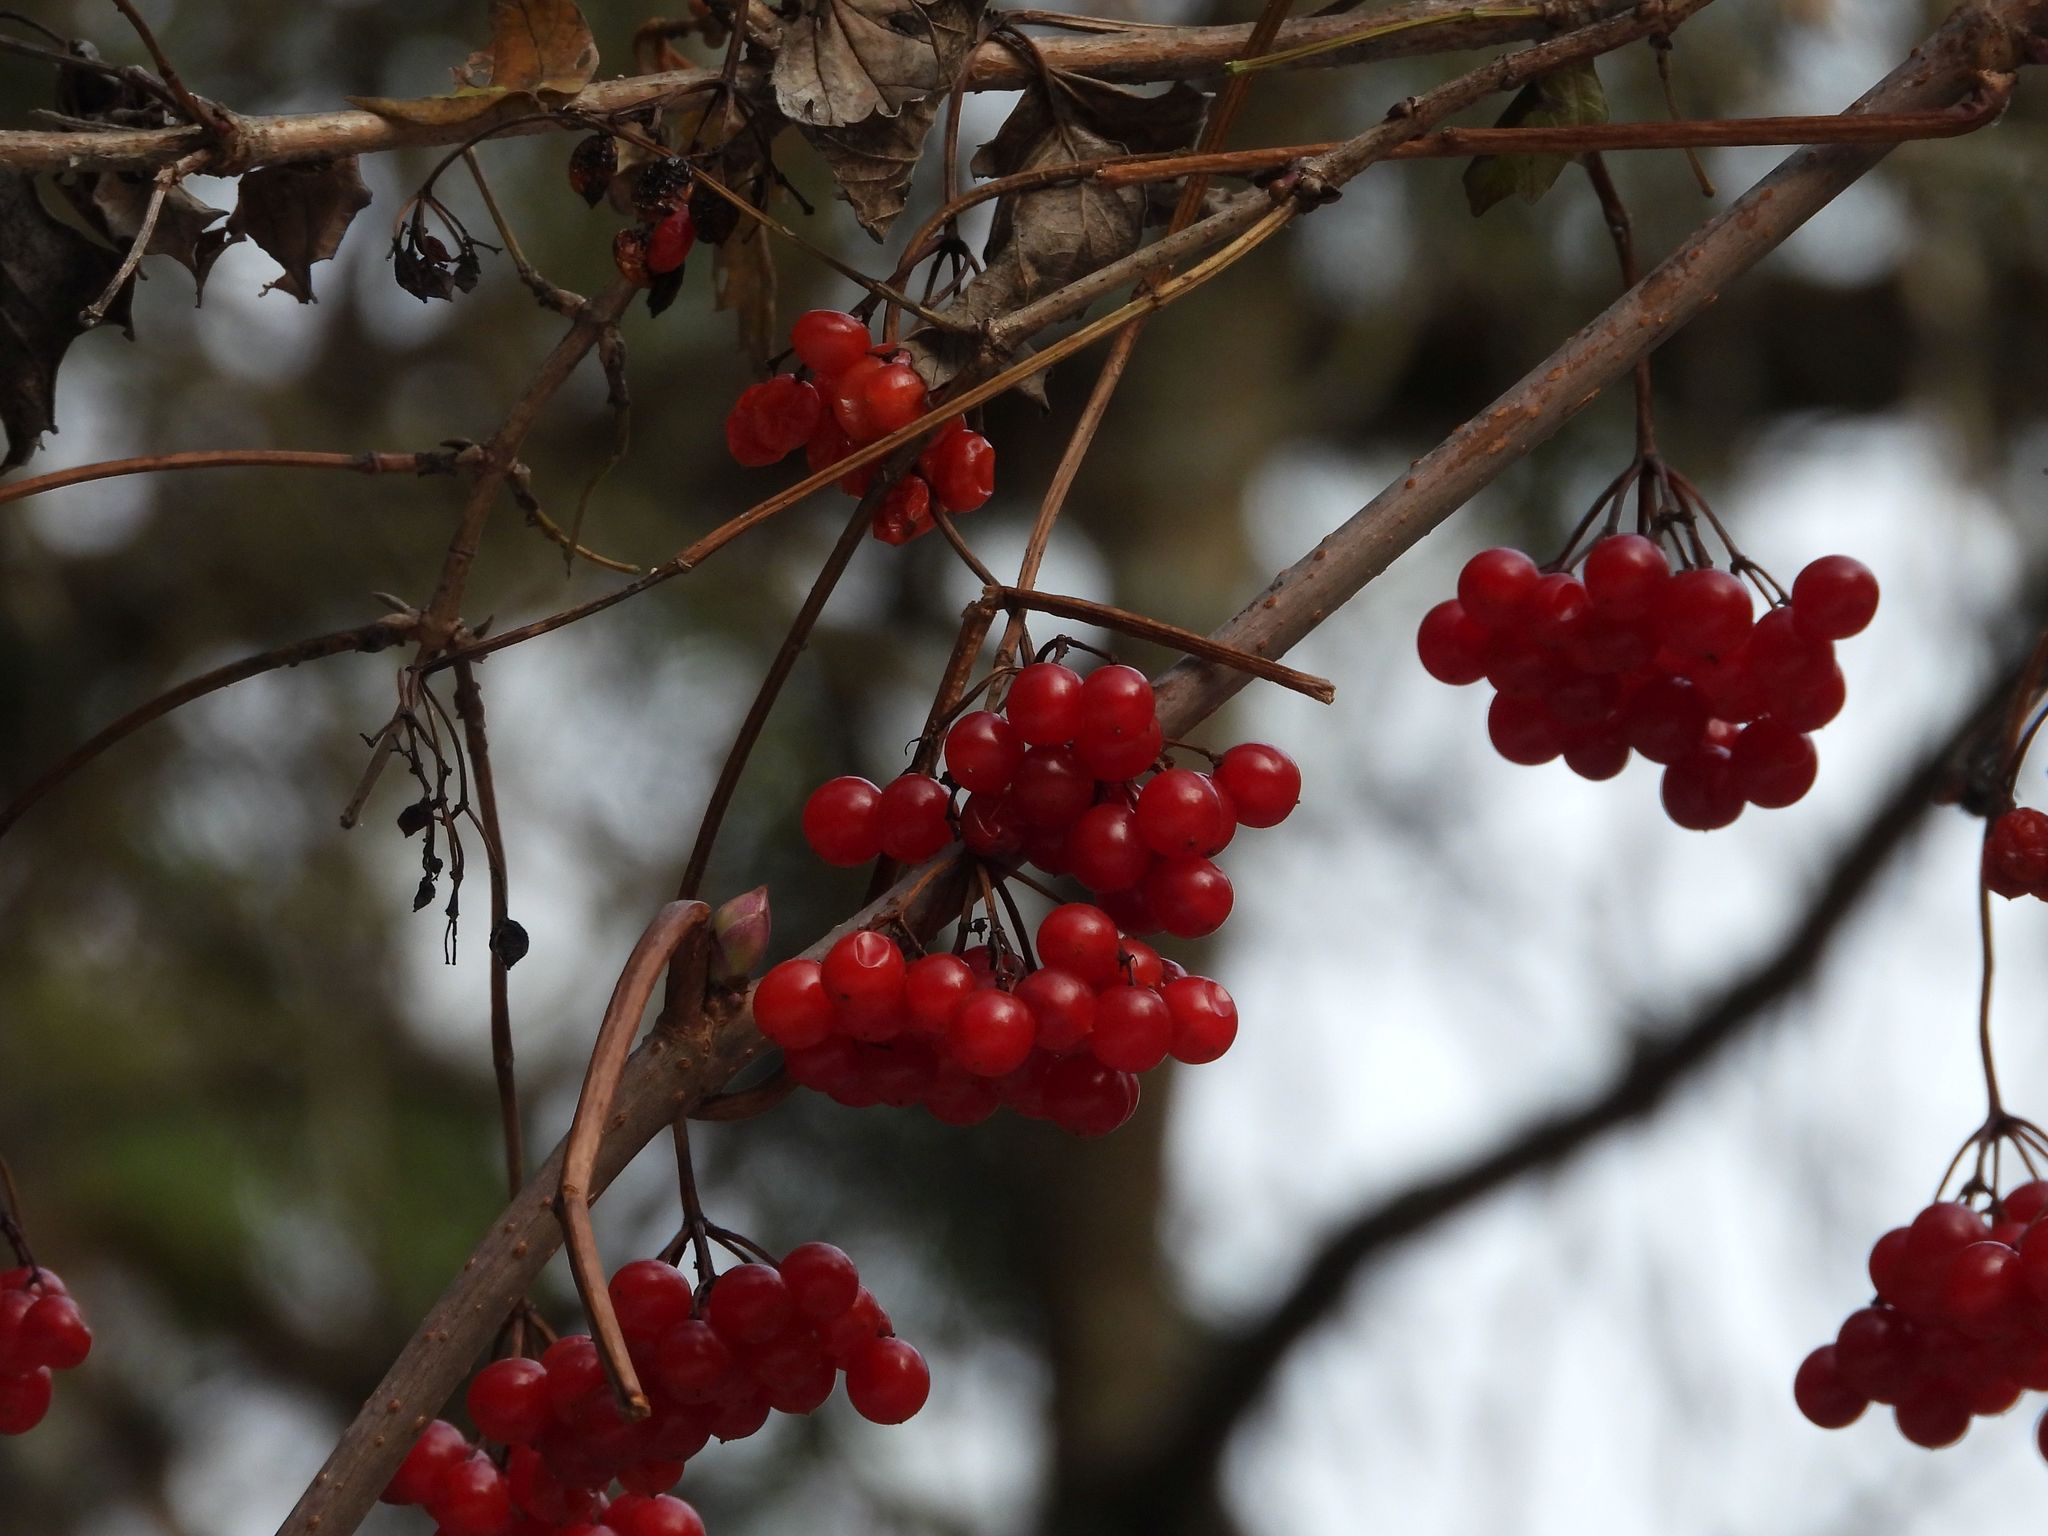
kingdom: Plantae
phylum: Tracheophyta
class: Magnoliopsida
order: Dipsacales
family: Viburnaceae
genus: Viburnum
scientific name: Viburnum opulus
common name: Guelder-rose
